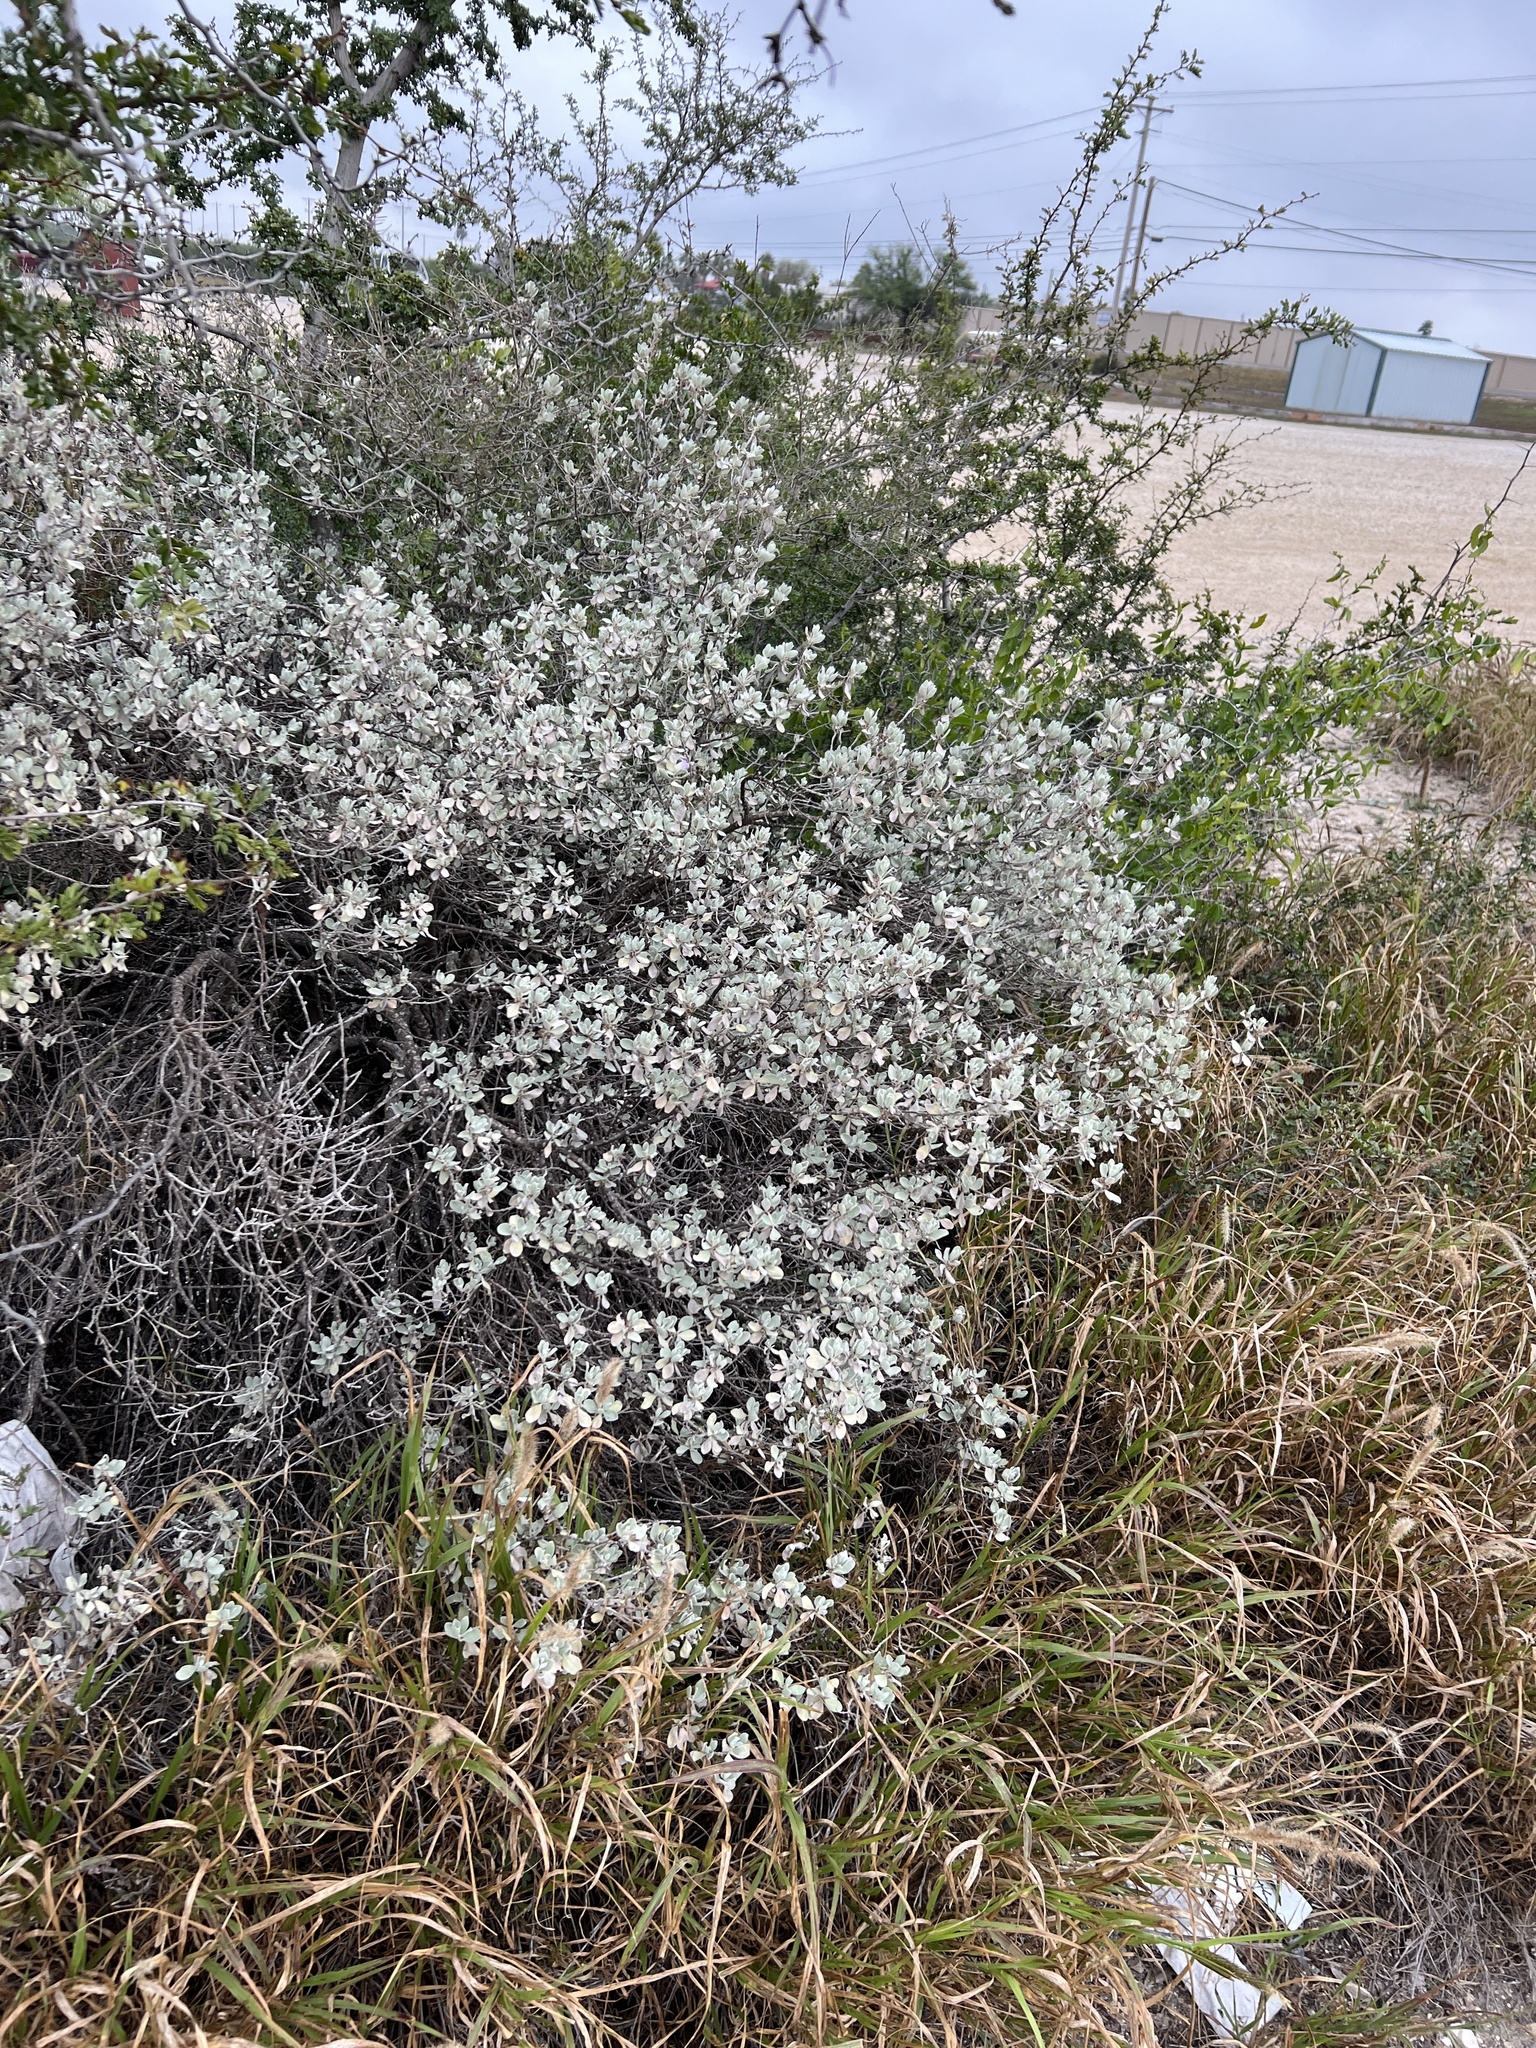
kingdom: Plantae
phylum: Tracheophyta
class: Magnoliopsida
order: Lamiales
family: Scrophulariaceae
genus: Leucophyllum
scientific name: Leucophyllum frutescens
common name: Texas silverleaf
